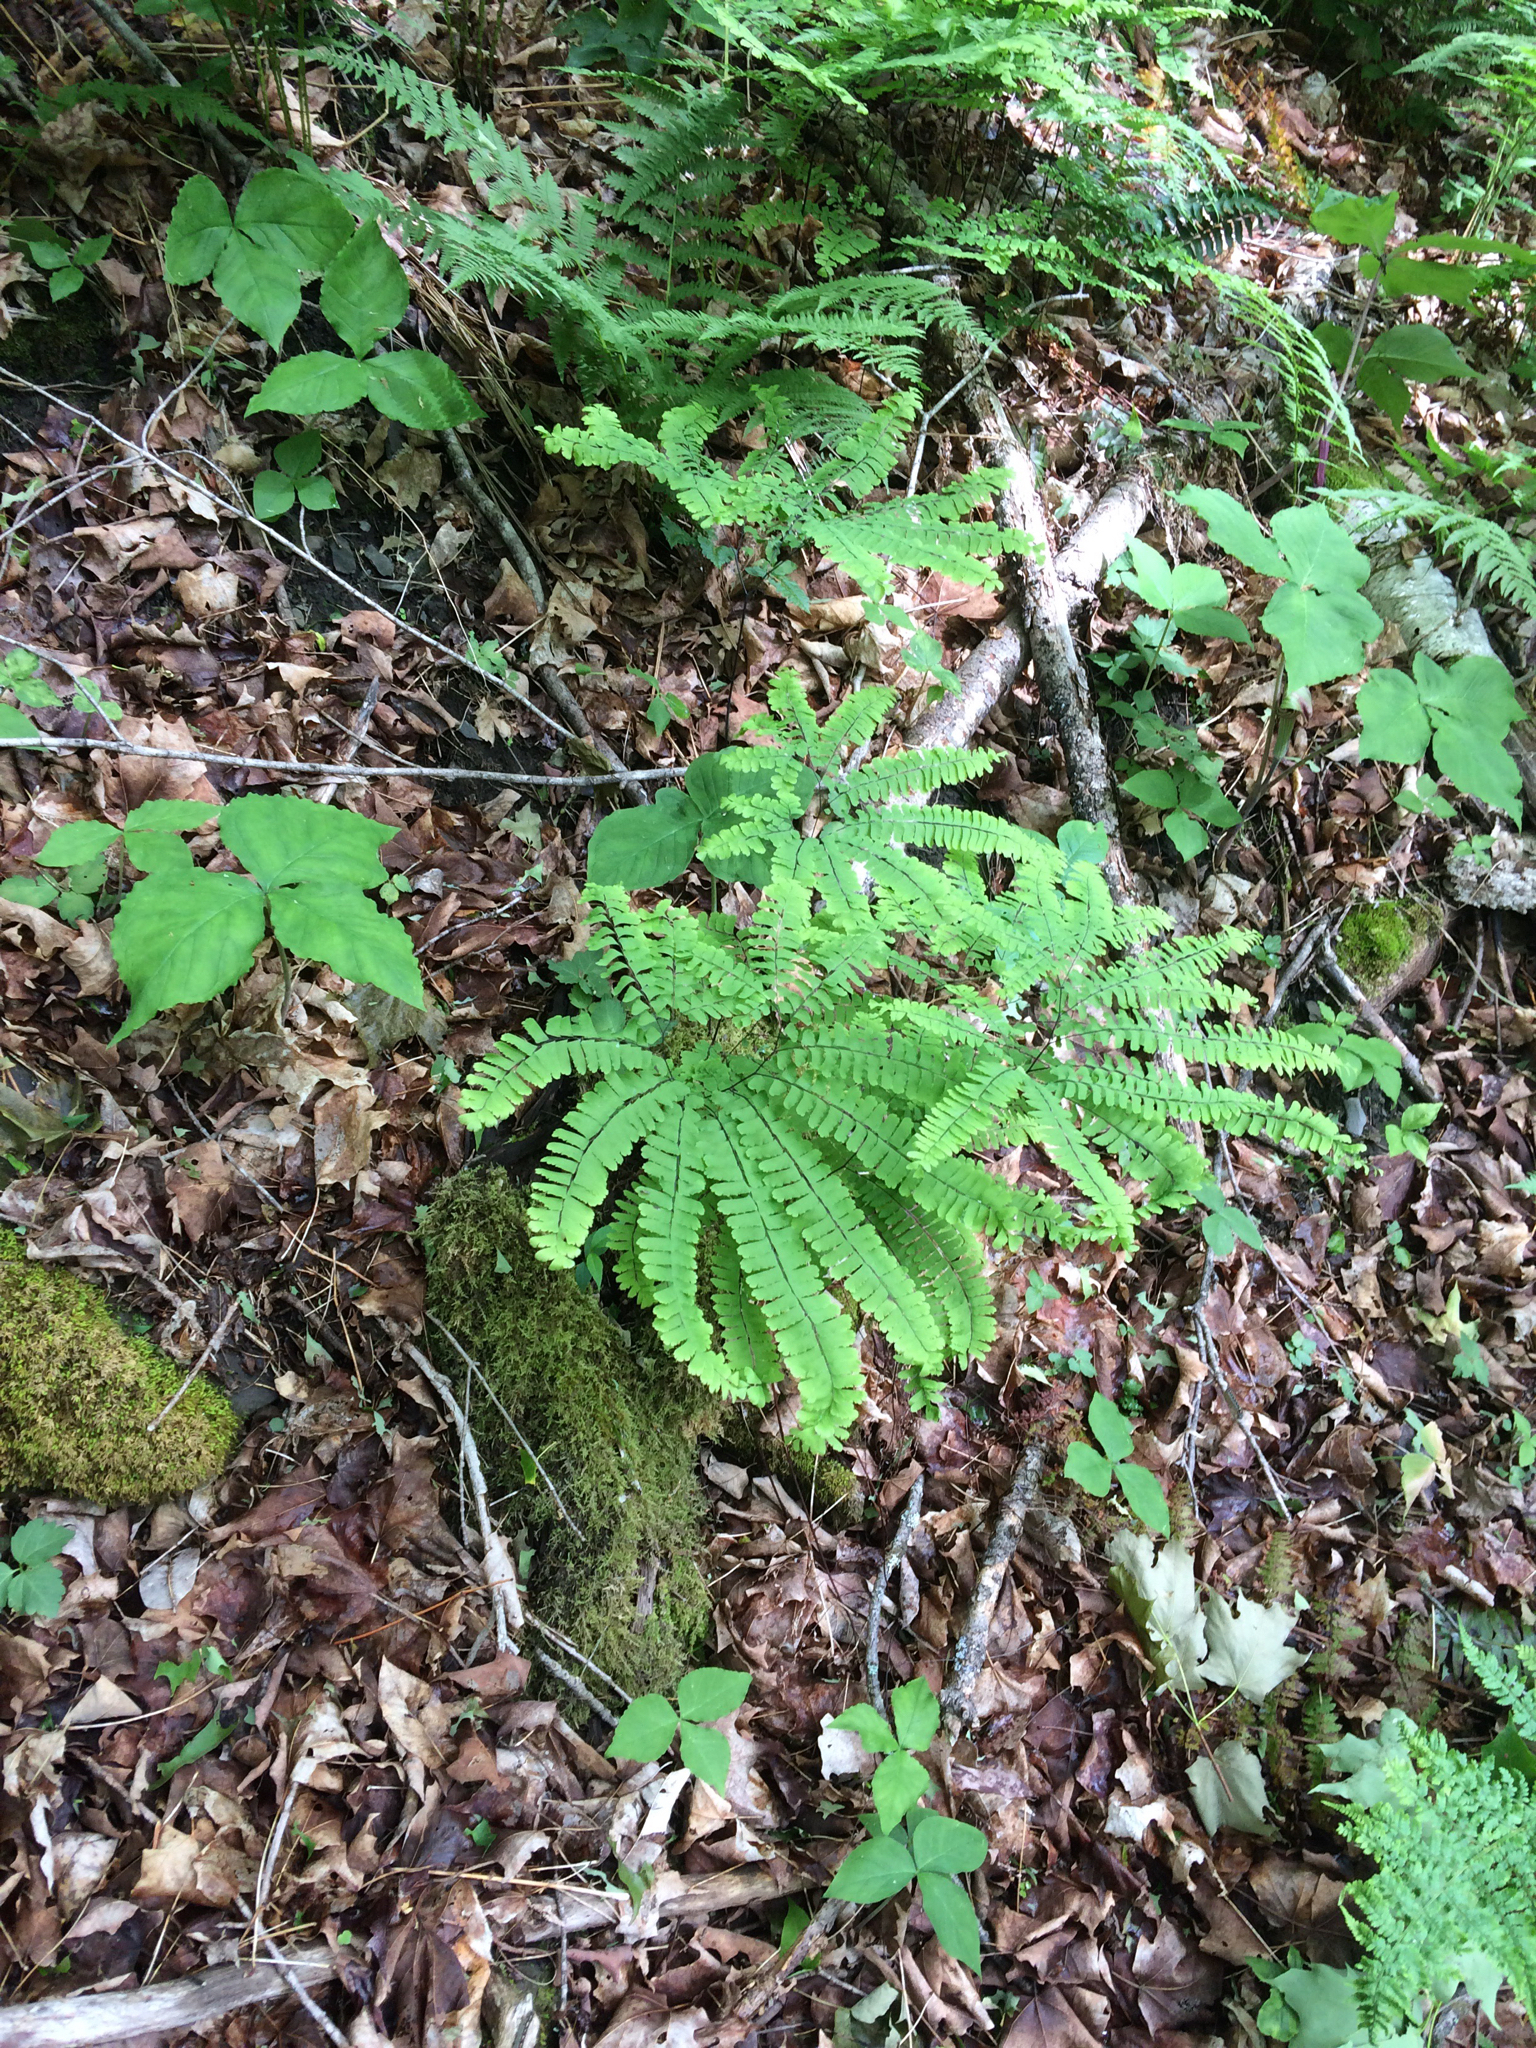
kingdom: Plantae
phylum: Tracheophyta
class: Polypodiopsida
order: Polypodiales
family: Pteridaceae
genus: Adiantum
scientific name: Adiantum pedatum
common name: Five-finger fern
